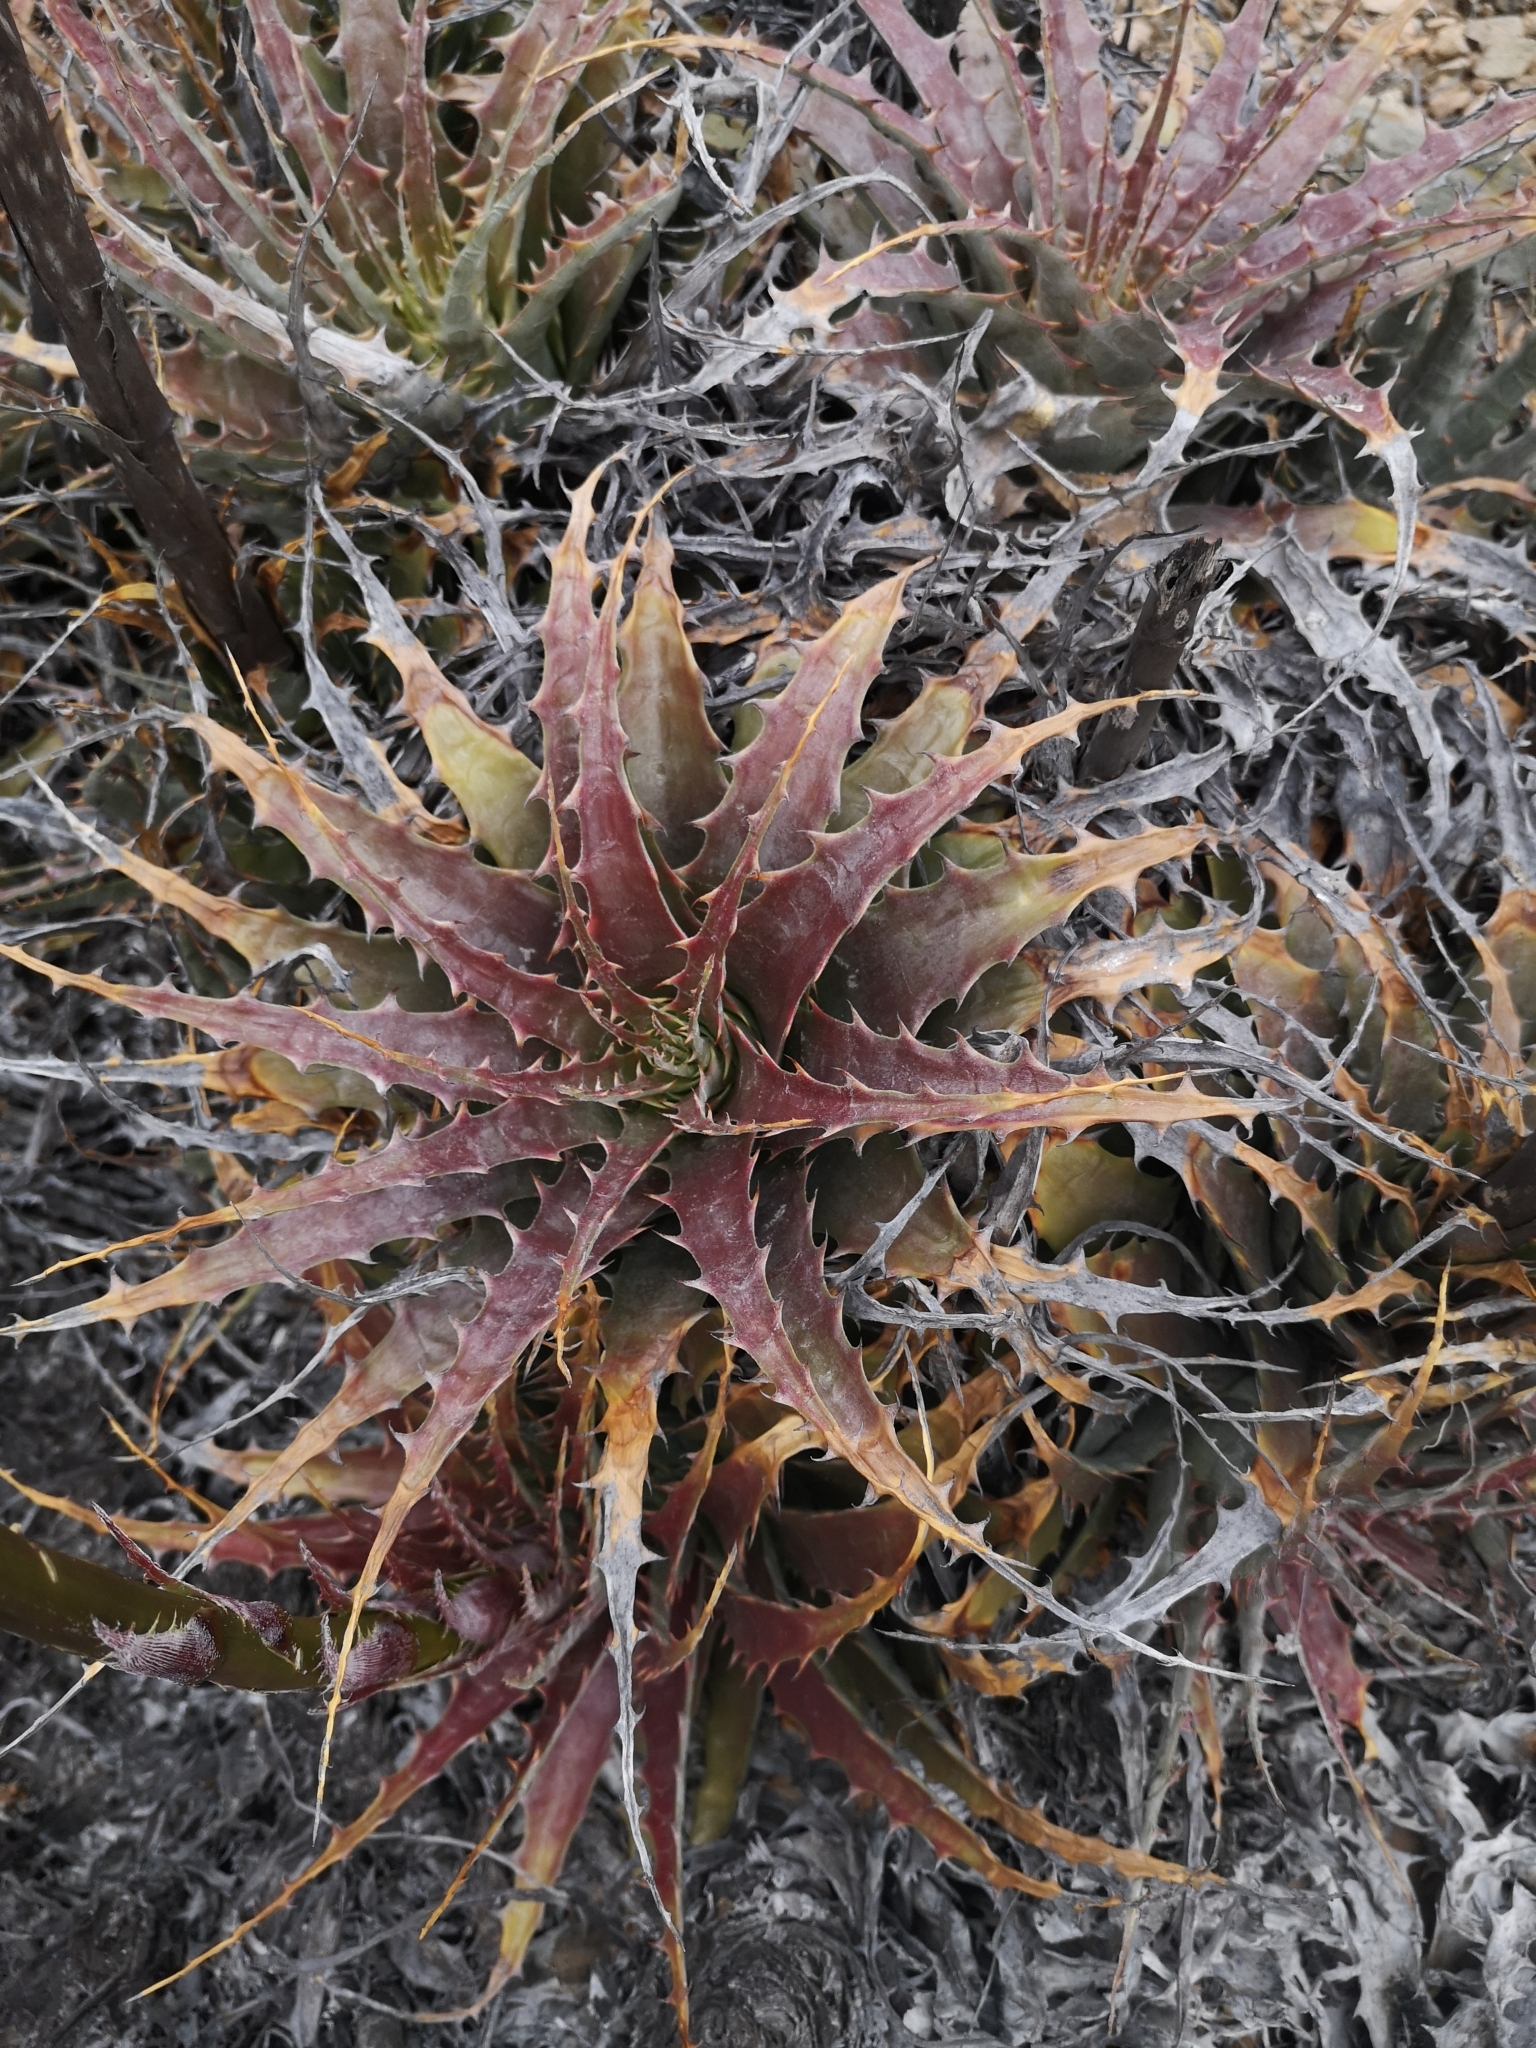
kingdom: Plantae
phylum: Tracheophyta
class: Liliopsida
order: Poales
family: Bromeliaceae
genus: Deuterocohnia
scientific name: Deuterocohnia chrysantha
